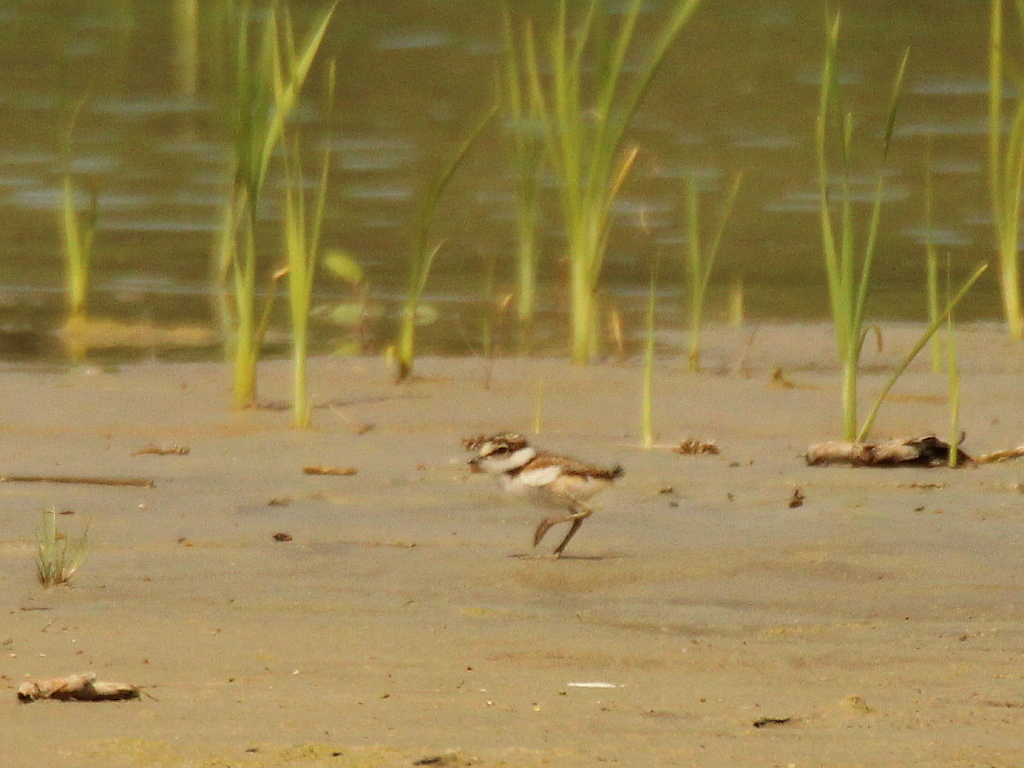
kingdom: Animalia
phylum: Chordata
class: Aves
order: Charadriiformes
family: Charadriidae
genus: Charadrius
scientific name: Charadrius dubius
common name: Little ringed plover
